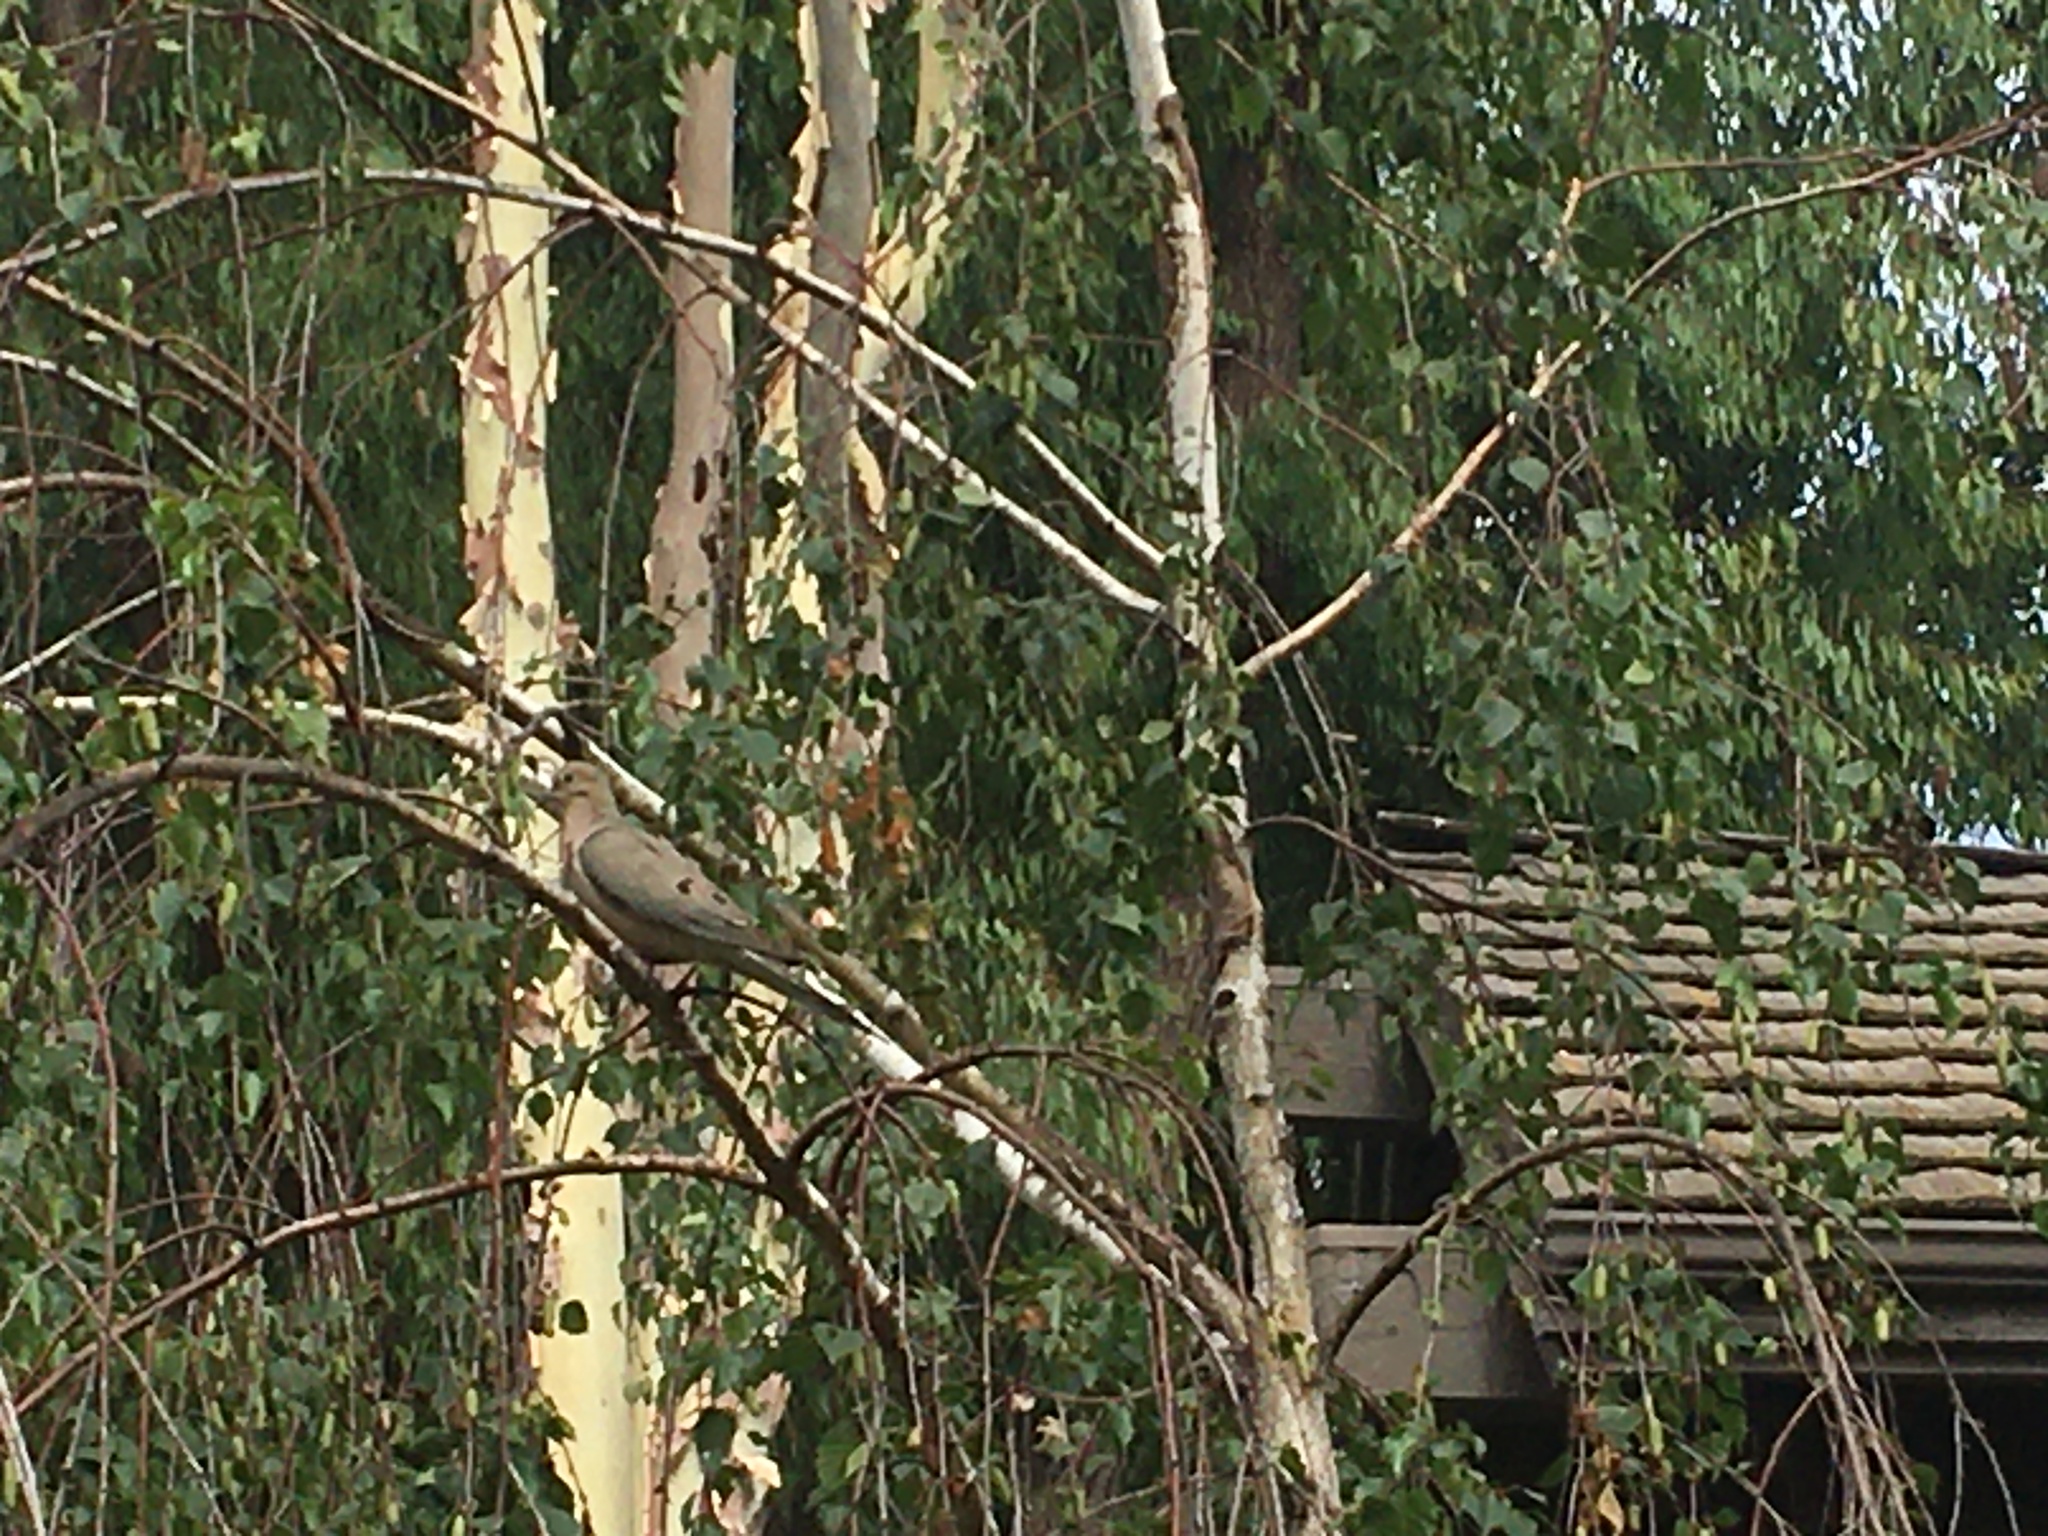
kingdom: Animalia
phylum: Chordata
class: Aves
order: Columbiformes
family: Columbidae
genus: Zenaida
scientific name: Zenaida macroura
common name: Mourning dove
